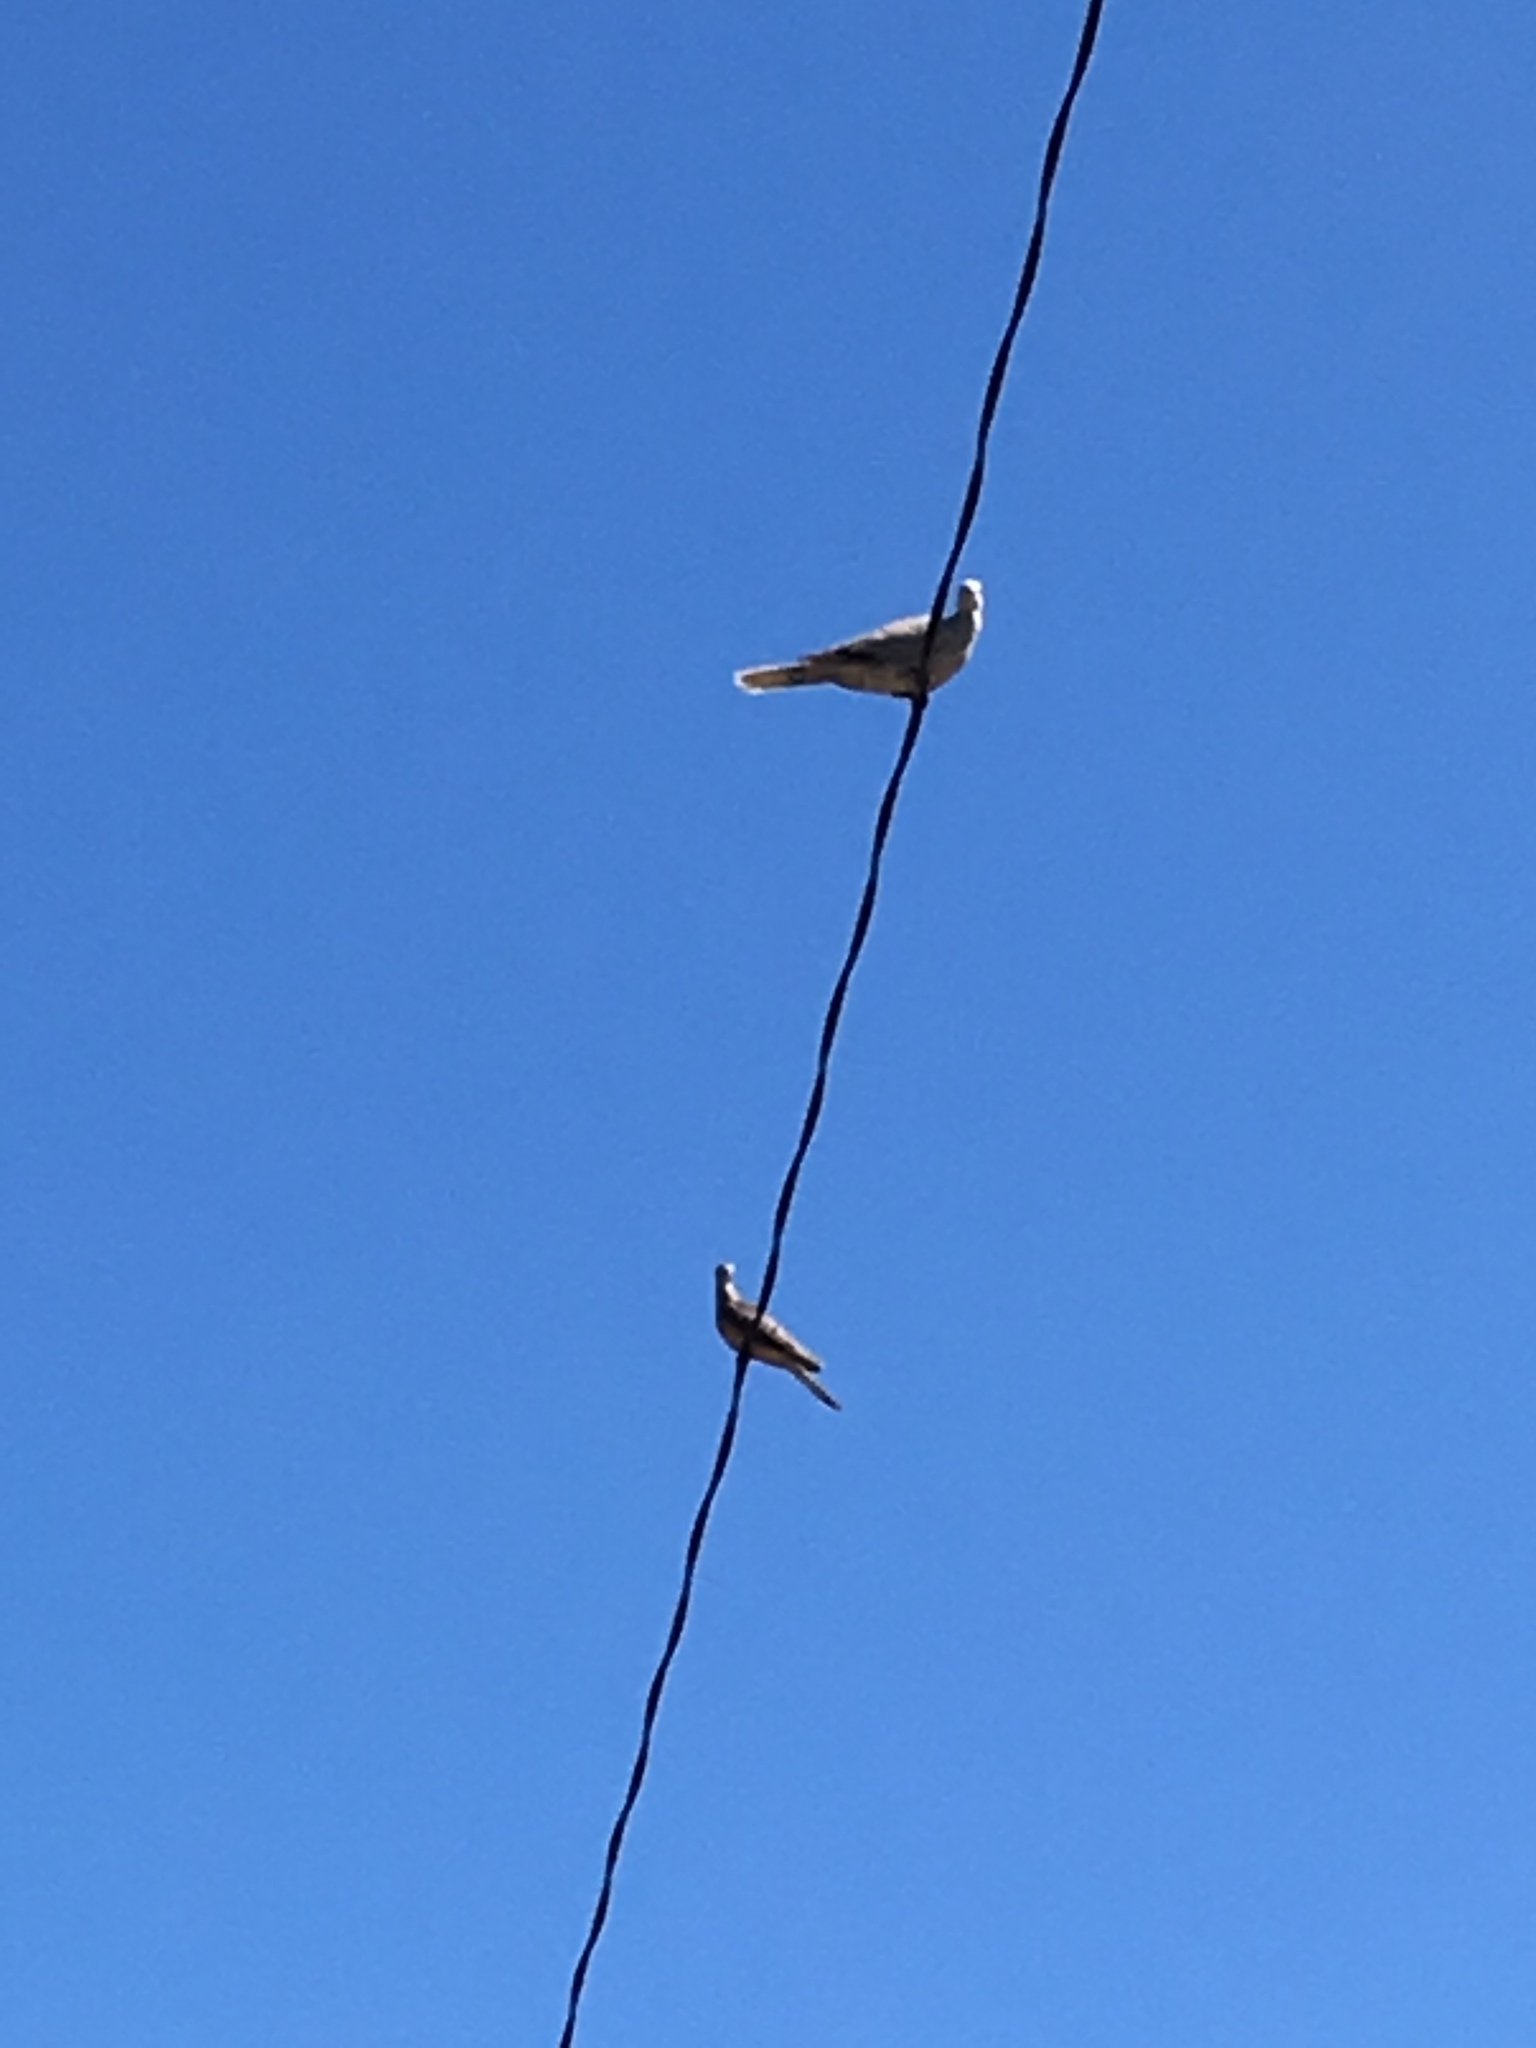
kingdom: Animalia
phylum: Chordata
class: Aves
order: Columbiformes
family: Columbidae
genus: Streptopelia
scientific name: Streptopelia decaocto
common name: Eurasian collared dove
